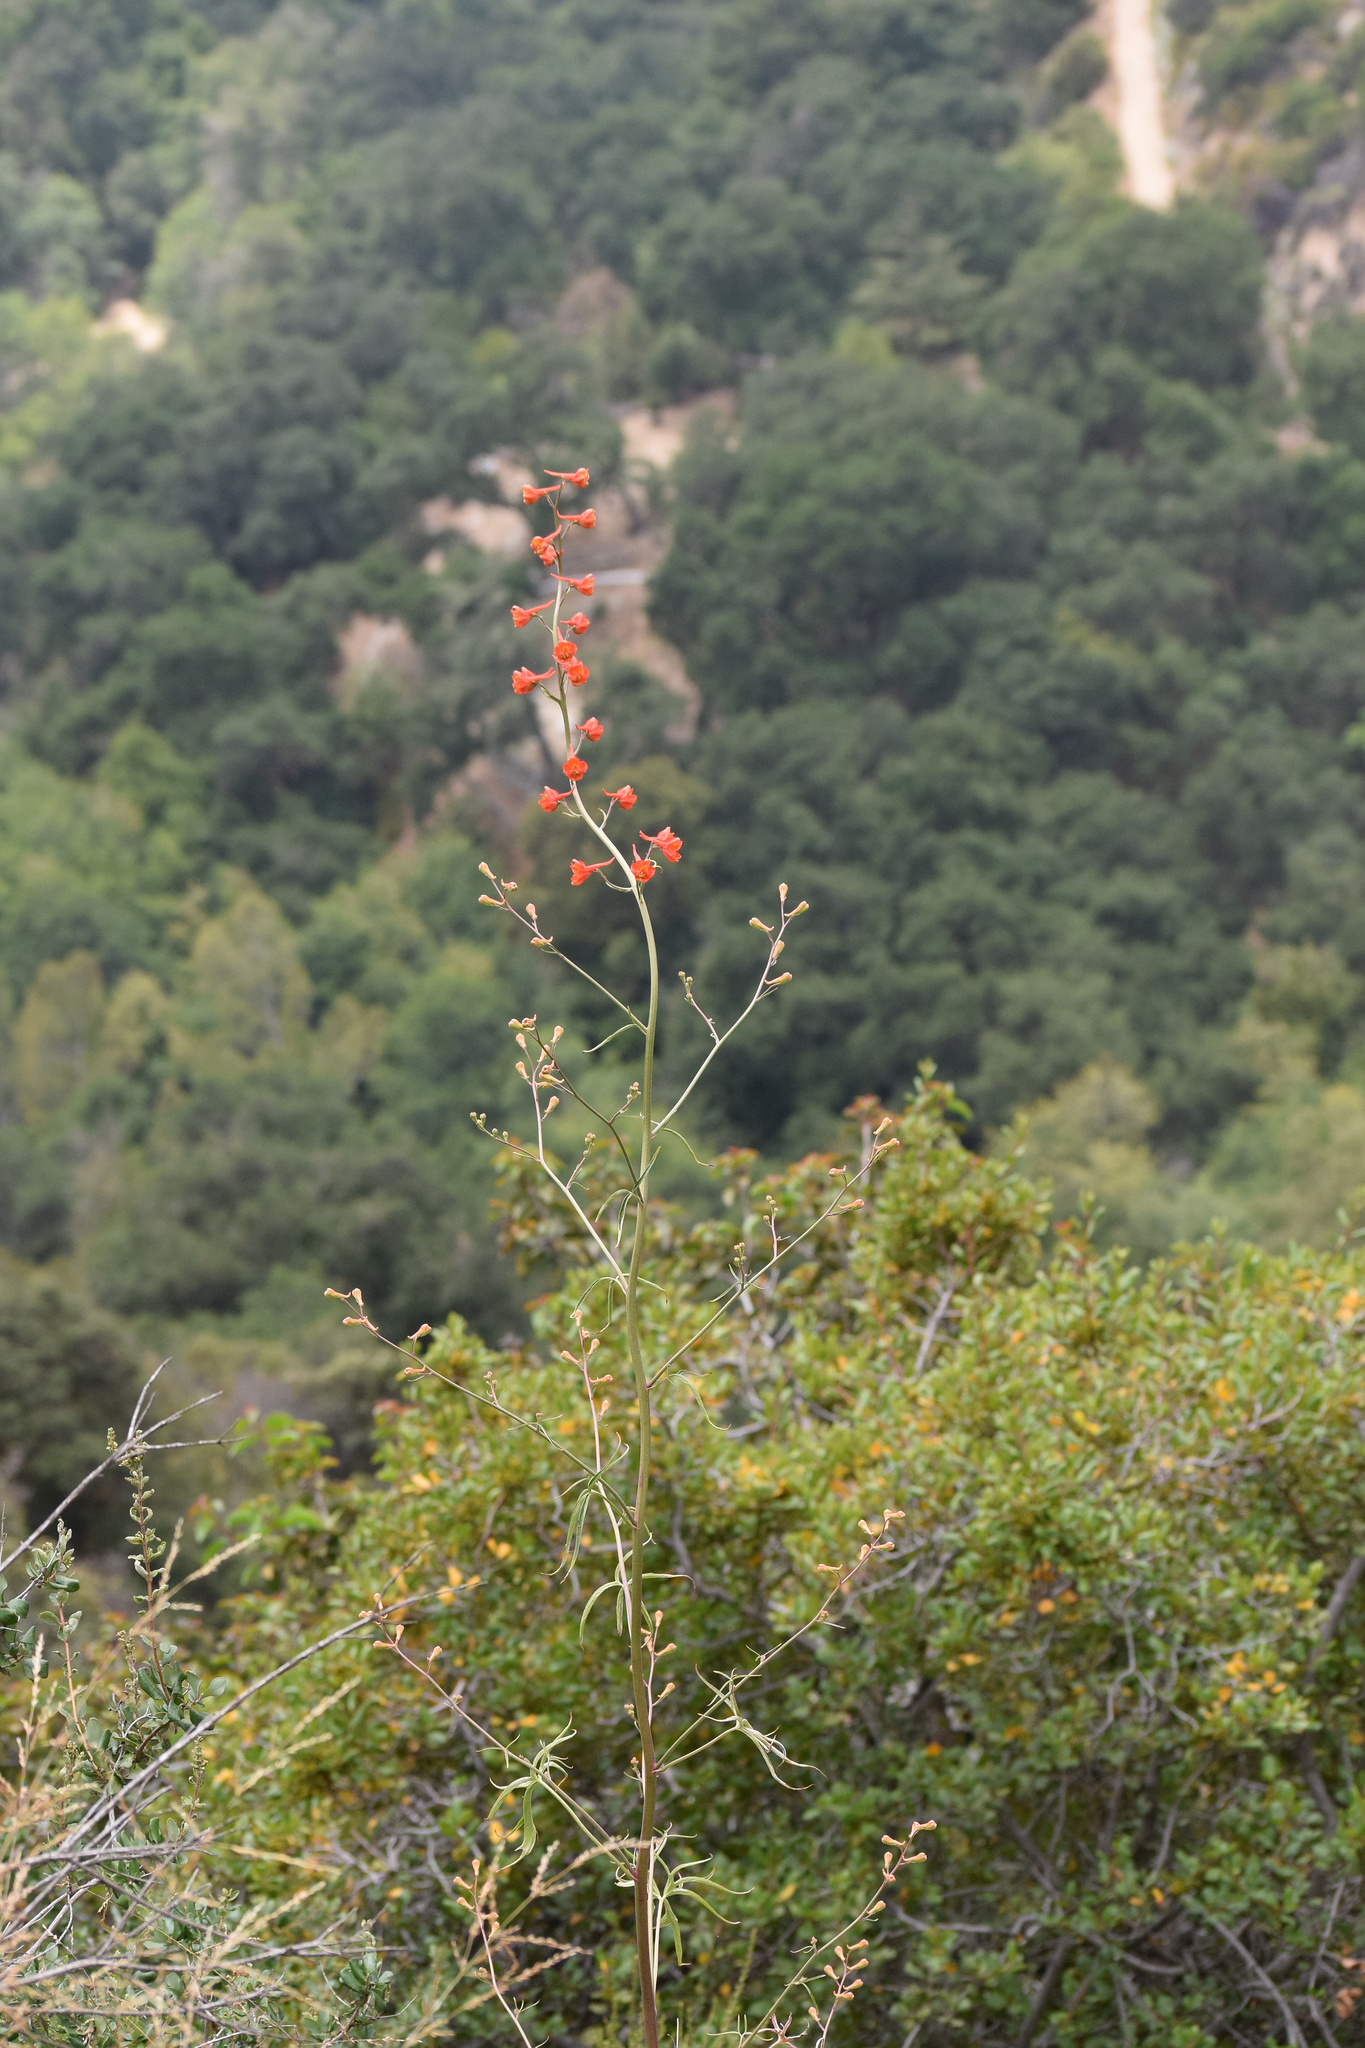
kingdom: Plantae
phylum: Tracheophyta
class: Magnoliopsida
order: Ranunculales
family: Ranunculaceae
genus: Delphinium
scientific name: Delphinium cardinale
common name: Scarlet larkspur
